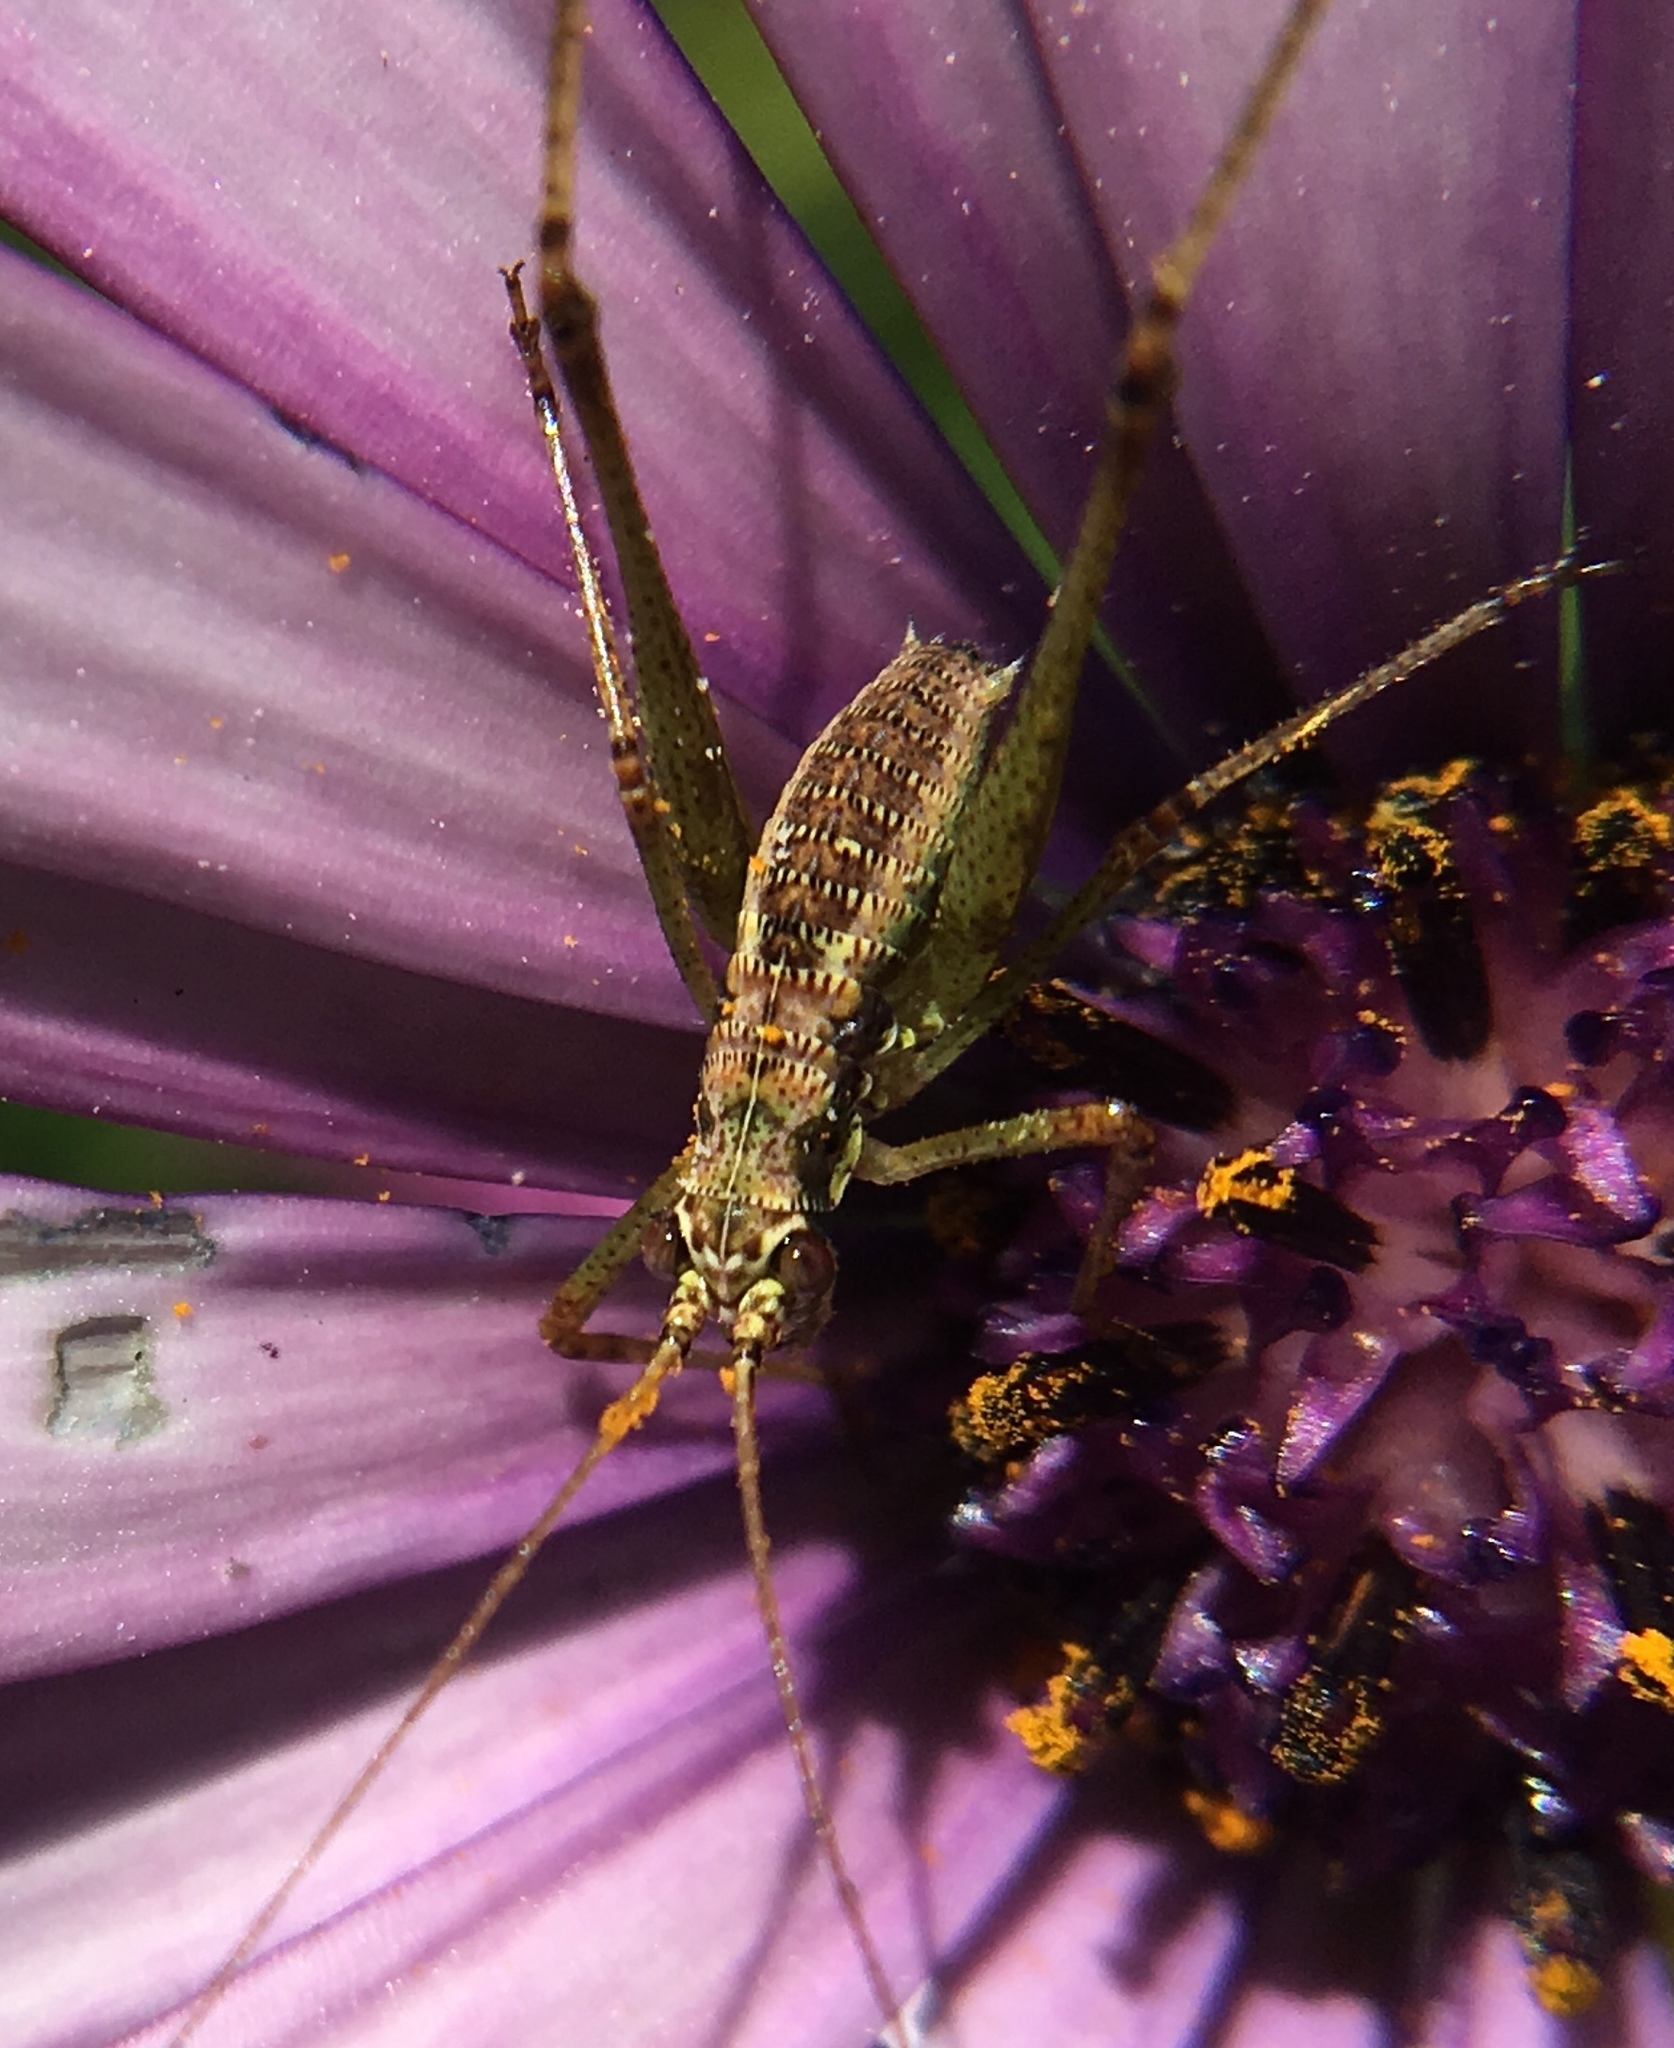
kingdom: Animalia
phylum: Arthropoda
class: Insecta
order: Orthoptera
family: Tettigoniidae
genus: Phaneroptera
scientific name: Phaneroptera sparsa
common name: Sickle-bearing leaf katydid
